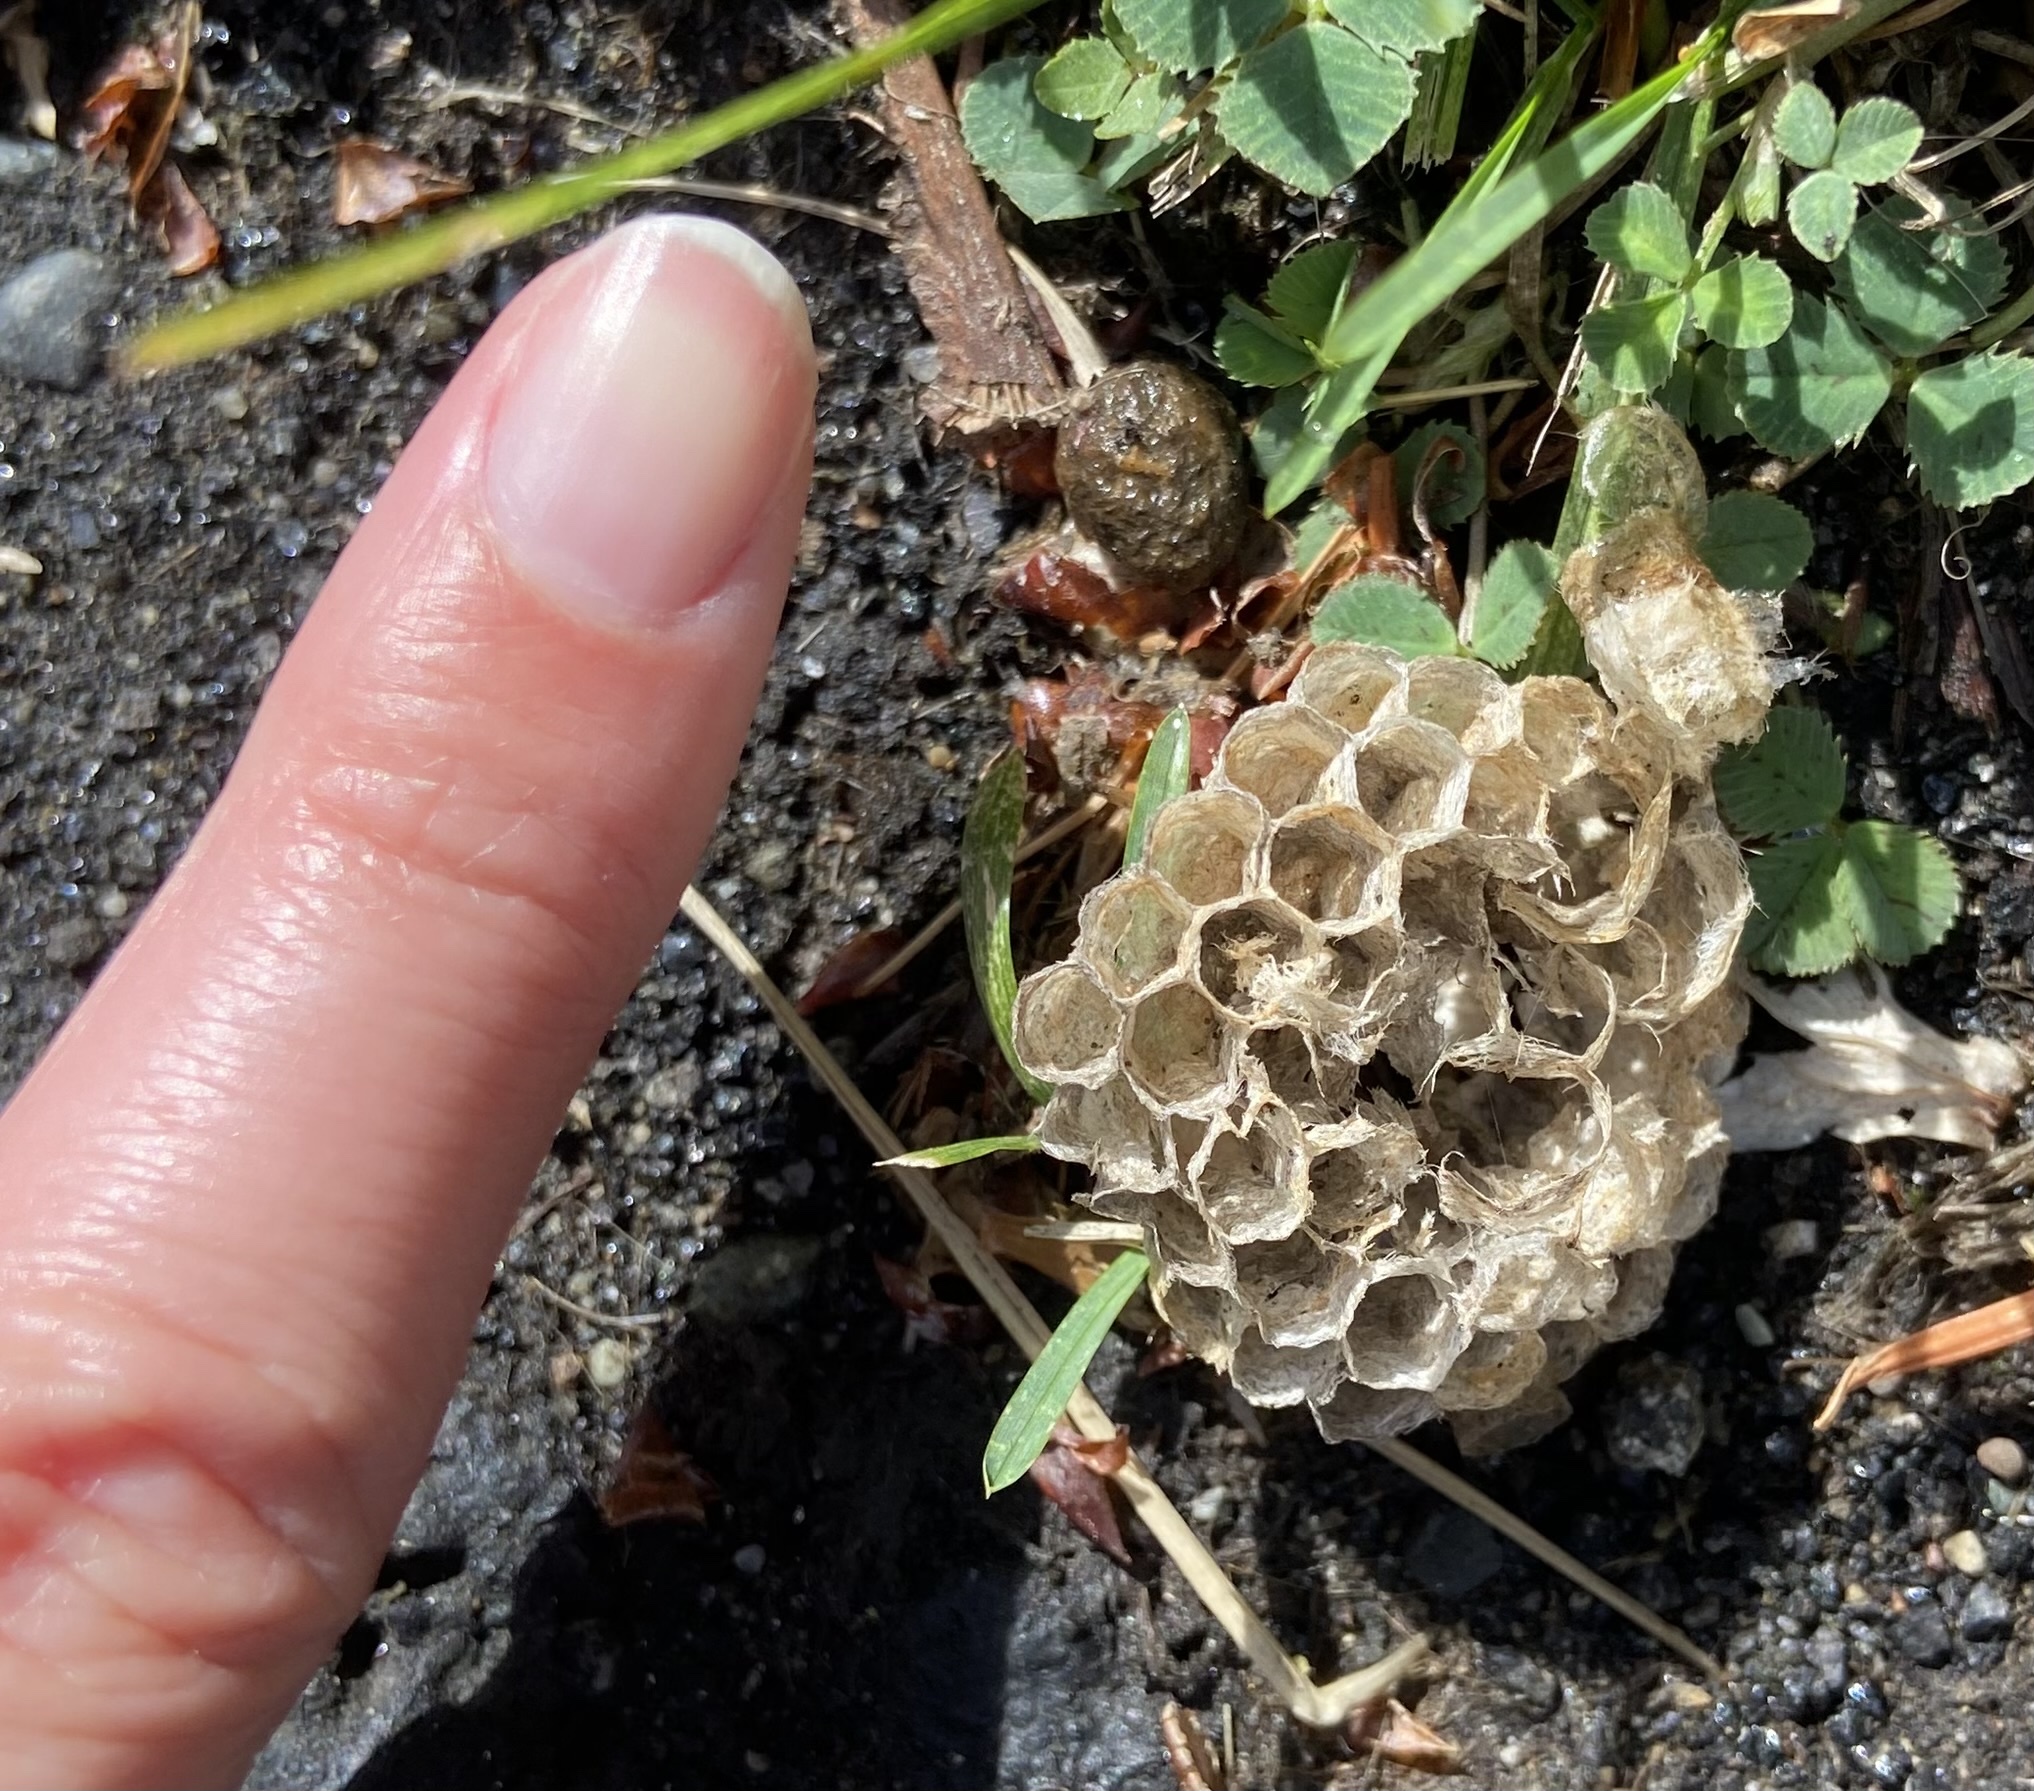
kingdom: Animalia
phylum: Arthropoda
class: Insecta
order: Hymenoptera
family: Eumenidae
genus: Polistes
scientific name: Polistes
